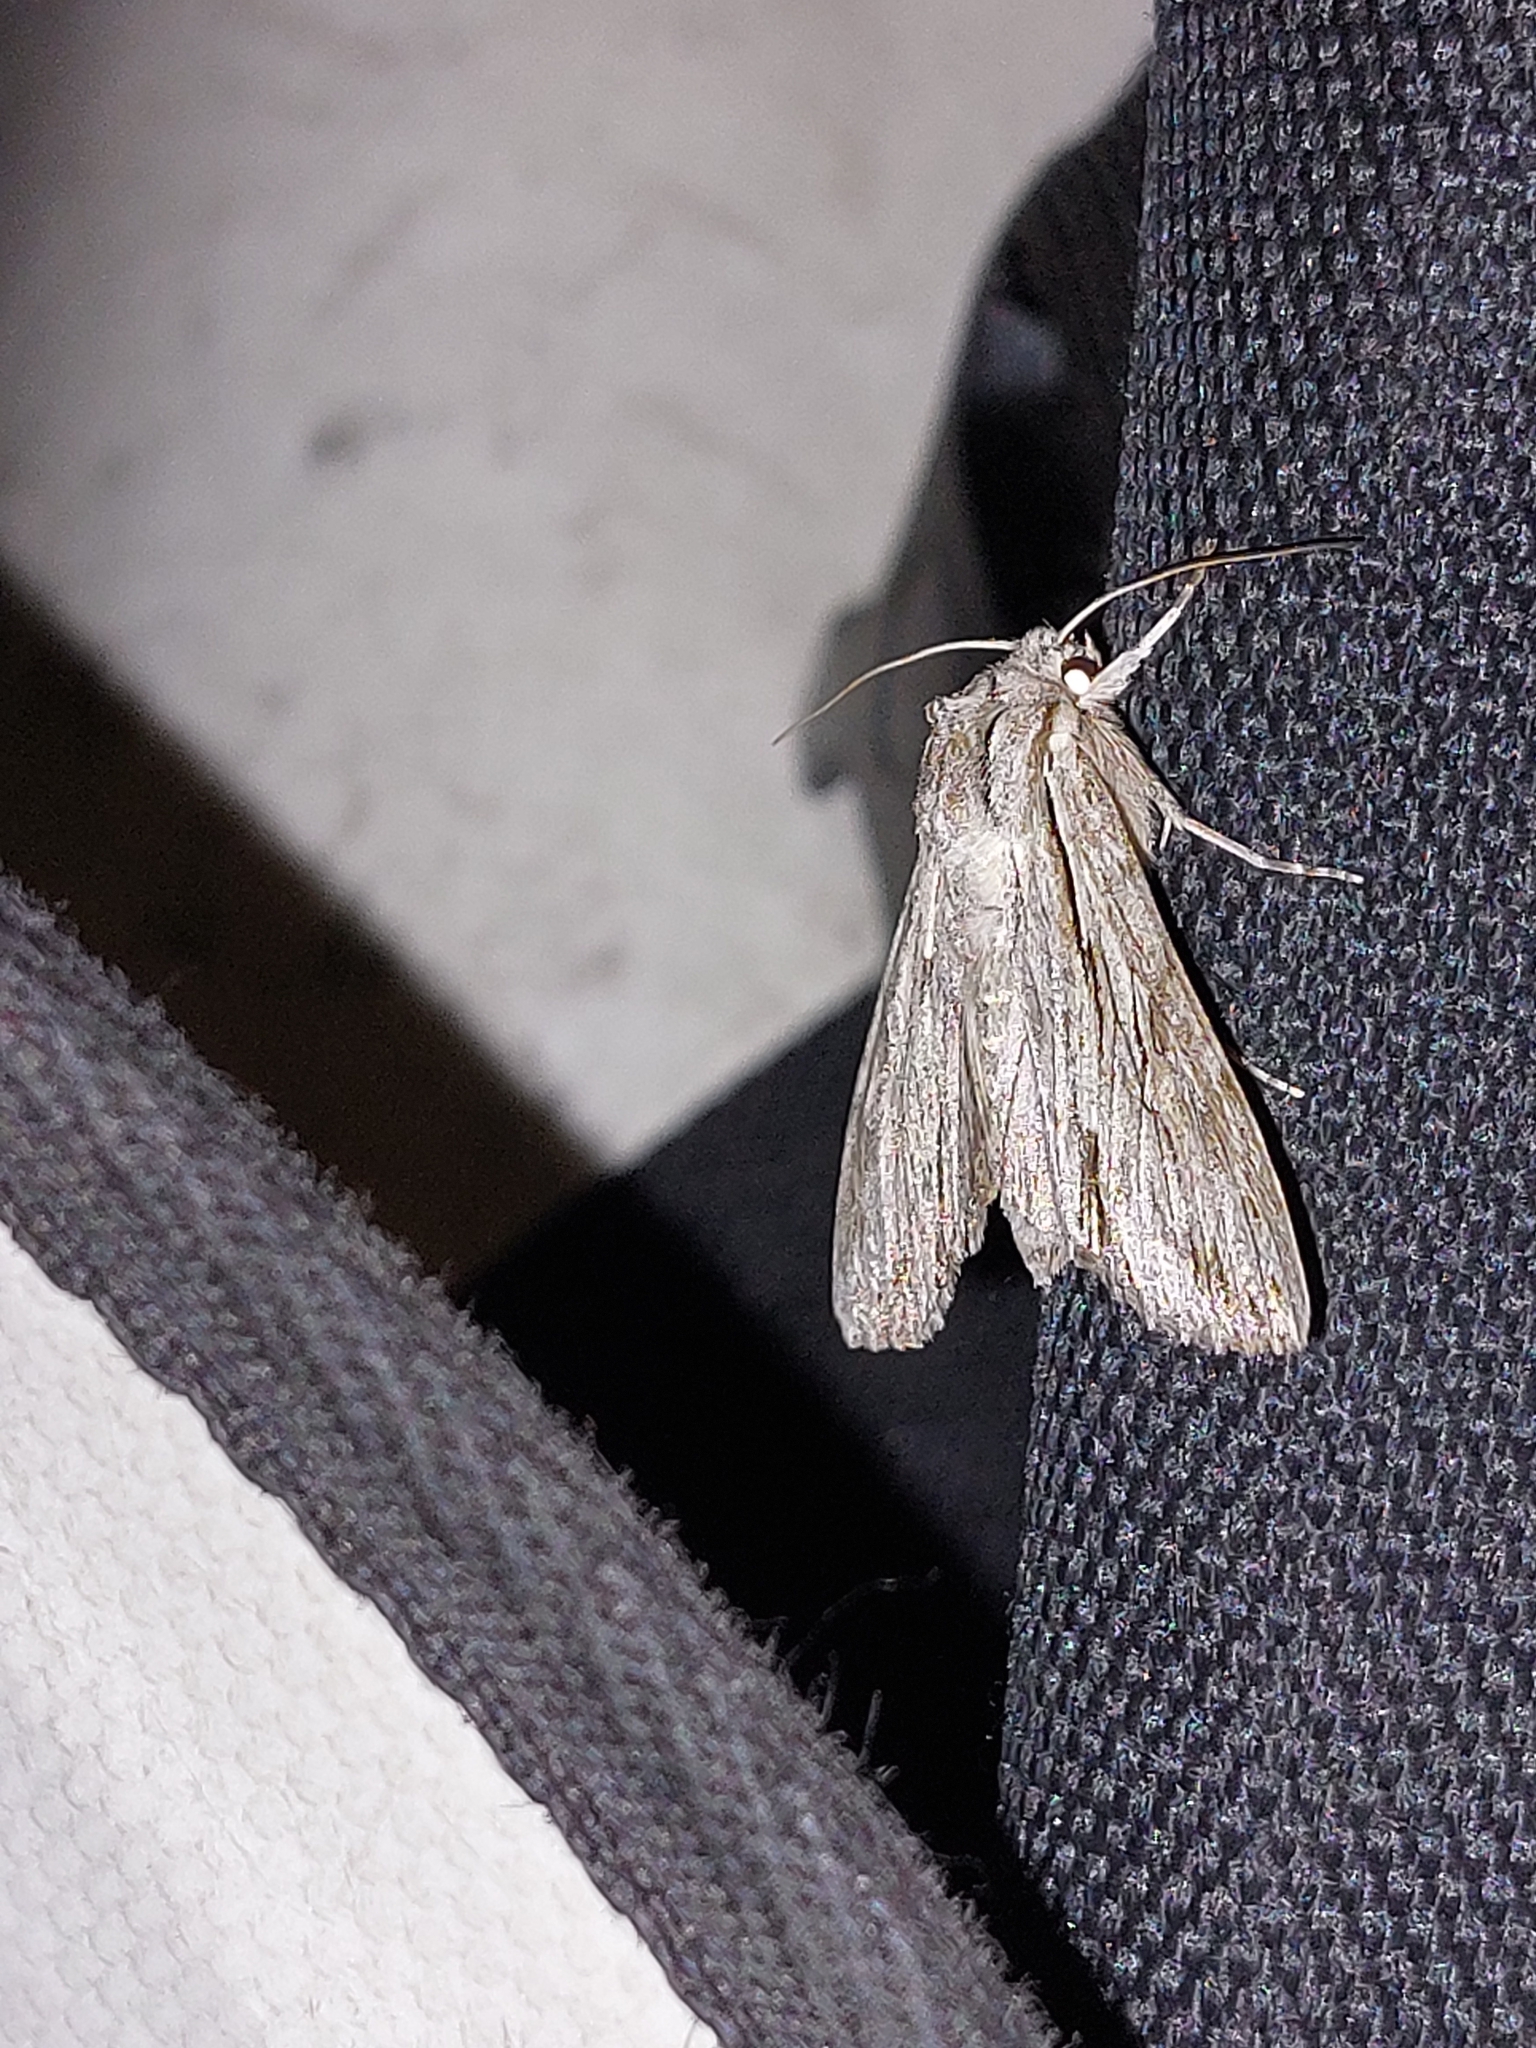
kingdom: Animalia
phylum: Arthropoda
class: Insecta
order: Lepidoptera
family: Noctuidae
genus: Auchmis
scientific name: Auchmis detersa
